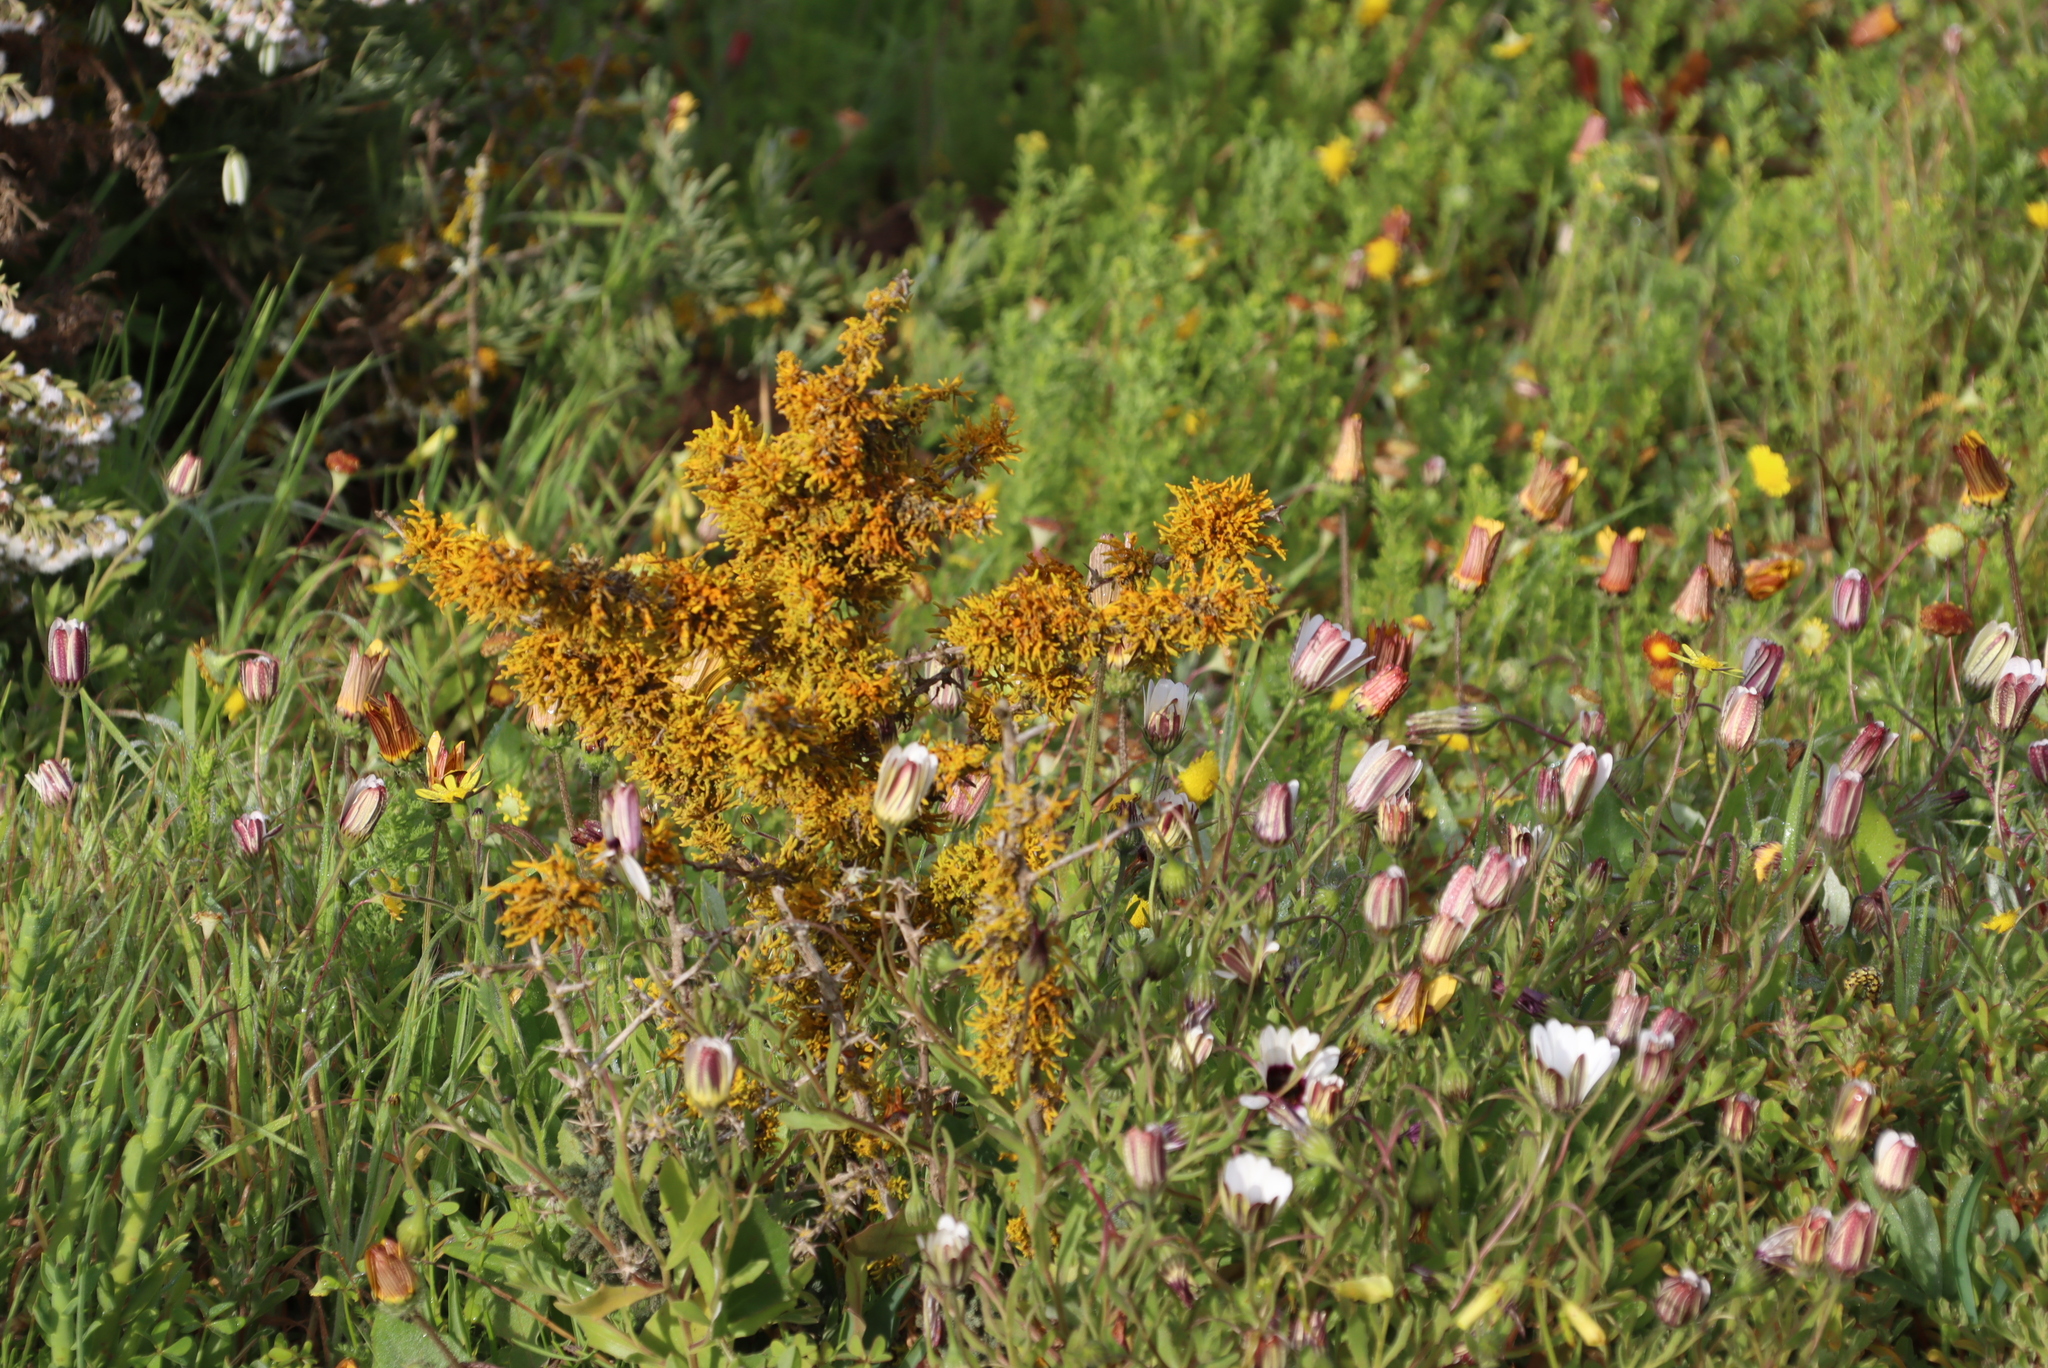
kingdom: Fungi
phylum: Ascomycota
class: Lecanoromycetes
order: Teloschistales
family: Teloschistaceae
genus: Dufourea
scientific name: Dufourea flammea
